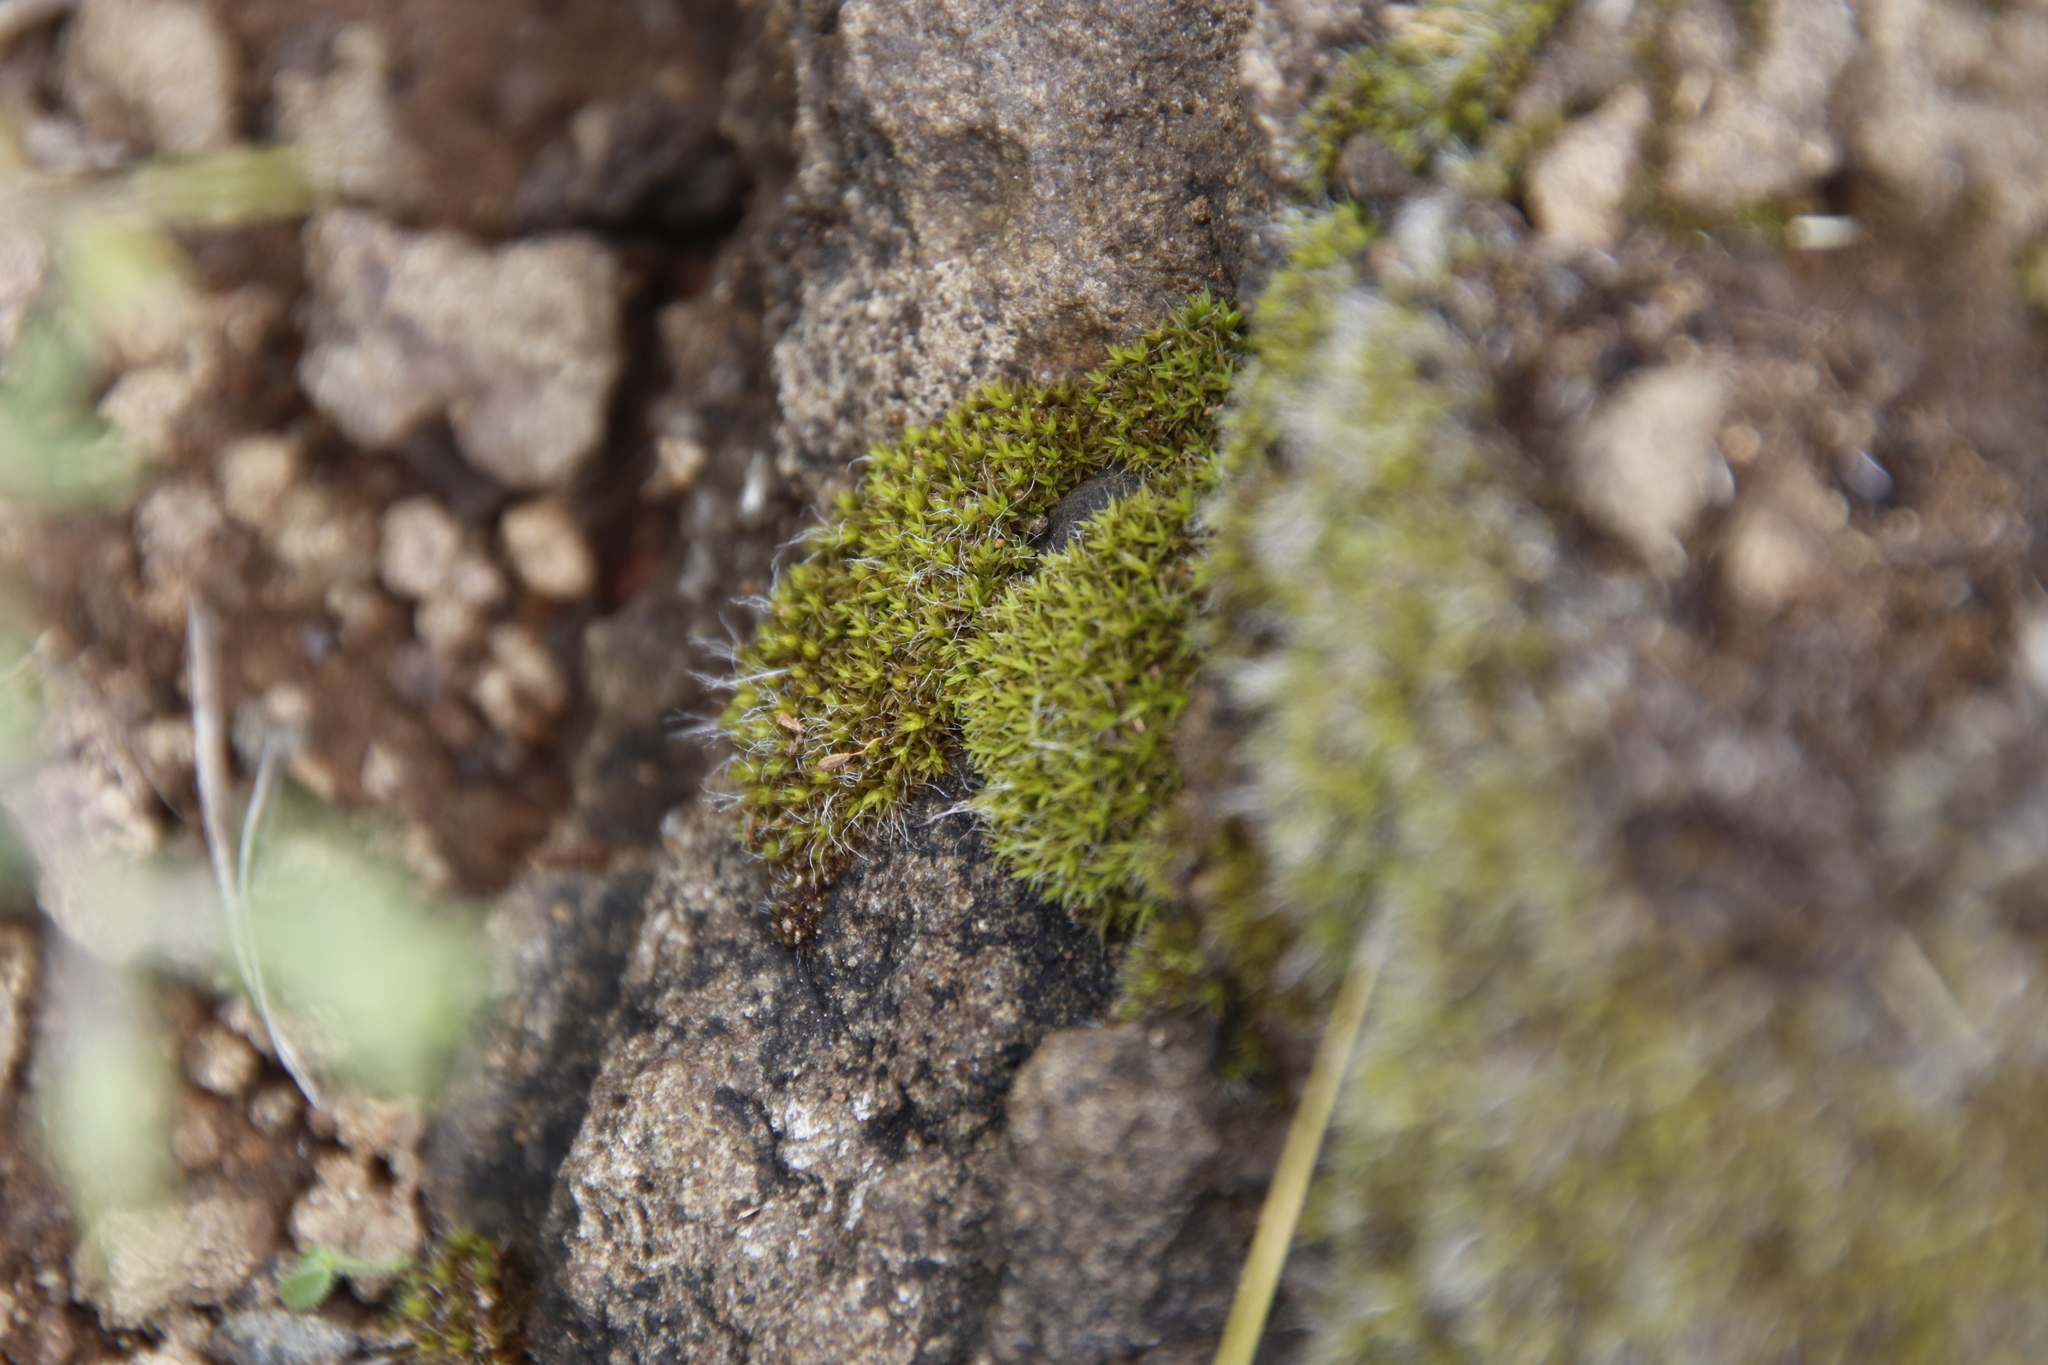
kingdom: Plantae
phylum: Bryophyta
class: Bryopsida
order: Grimmiales
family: Grimmiaceae
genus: Grimmia
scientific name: Grimmia pulvinata
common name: Grey-cushioned grimmia
